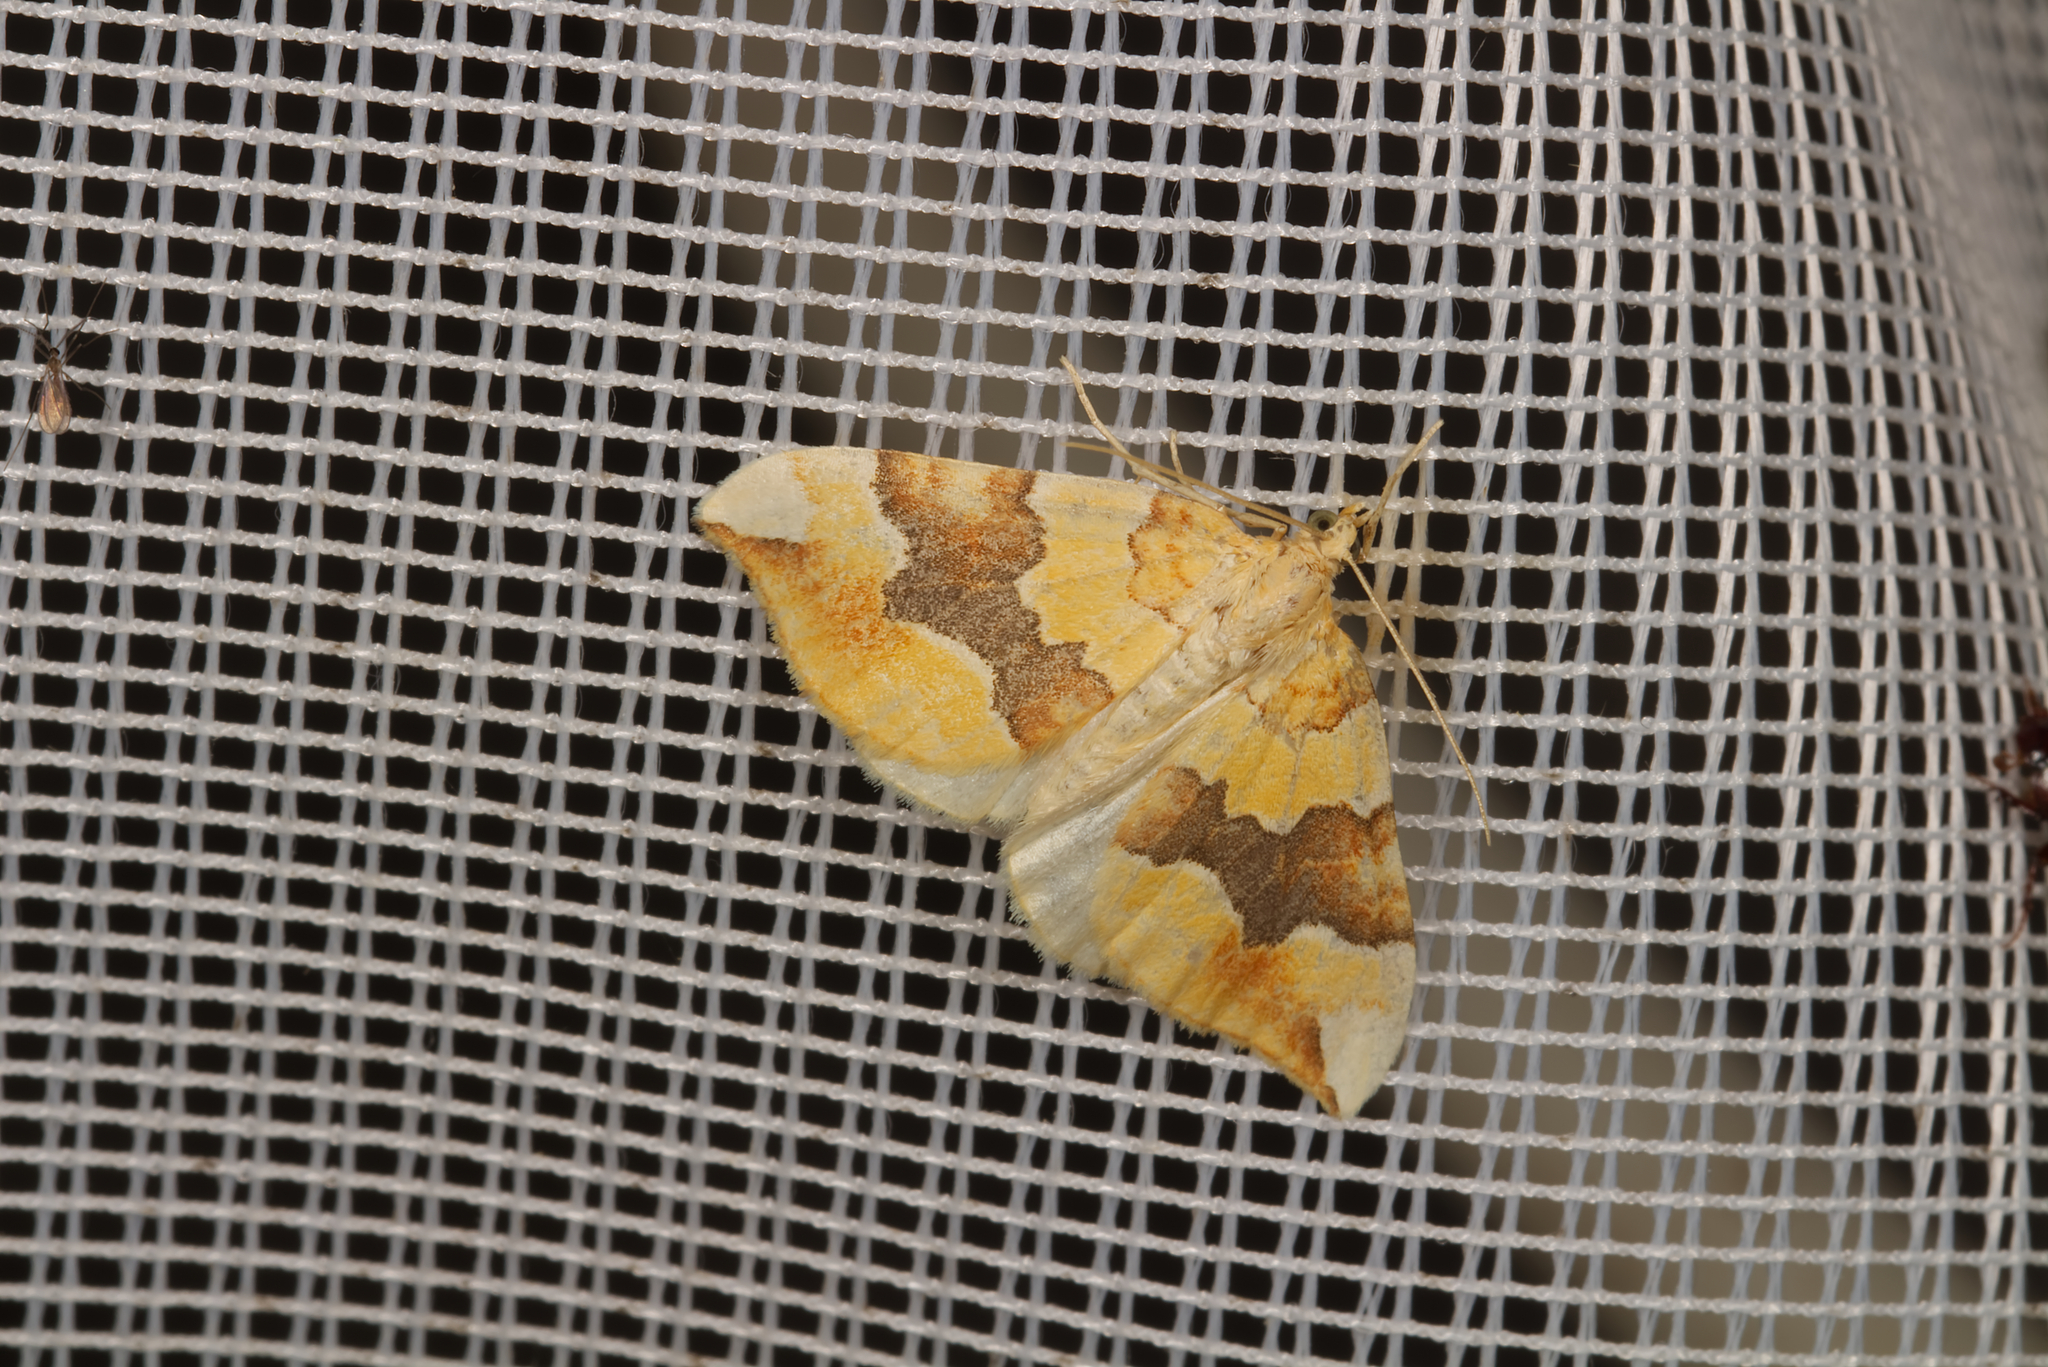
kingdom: Animalia
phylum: Arthropoda
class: Insecta
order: Lepidoptera
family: Geometridae
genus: Cidaria
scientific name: Cidaria fulvata
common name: Barred yellow
